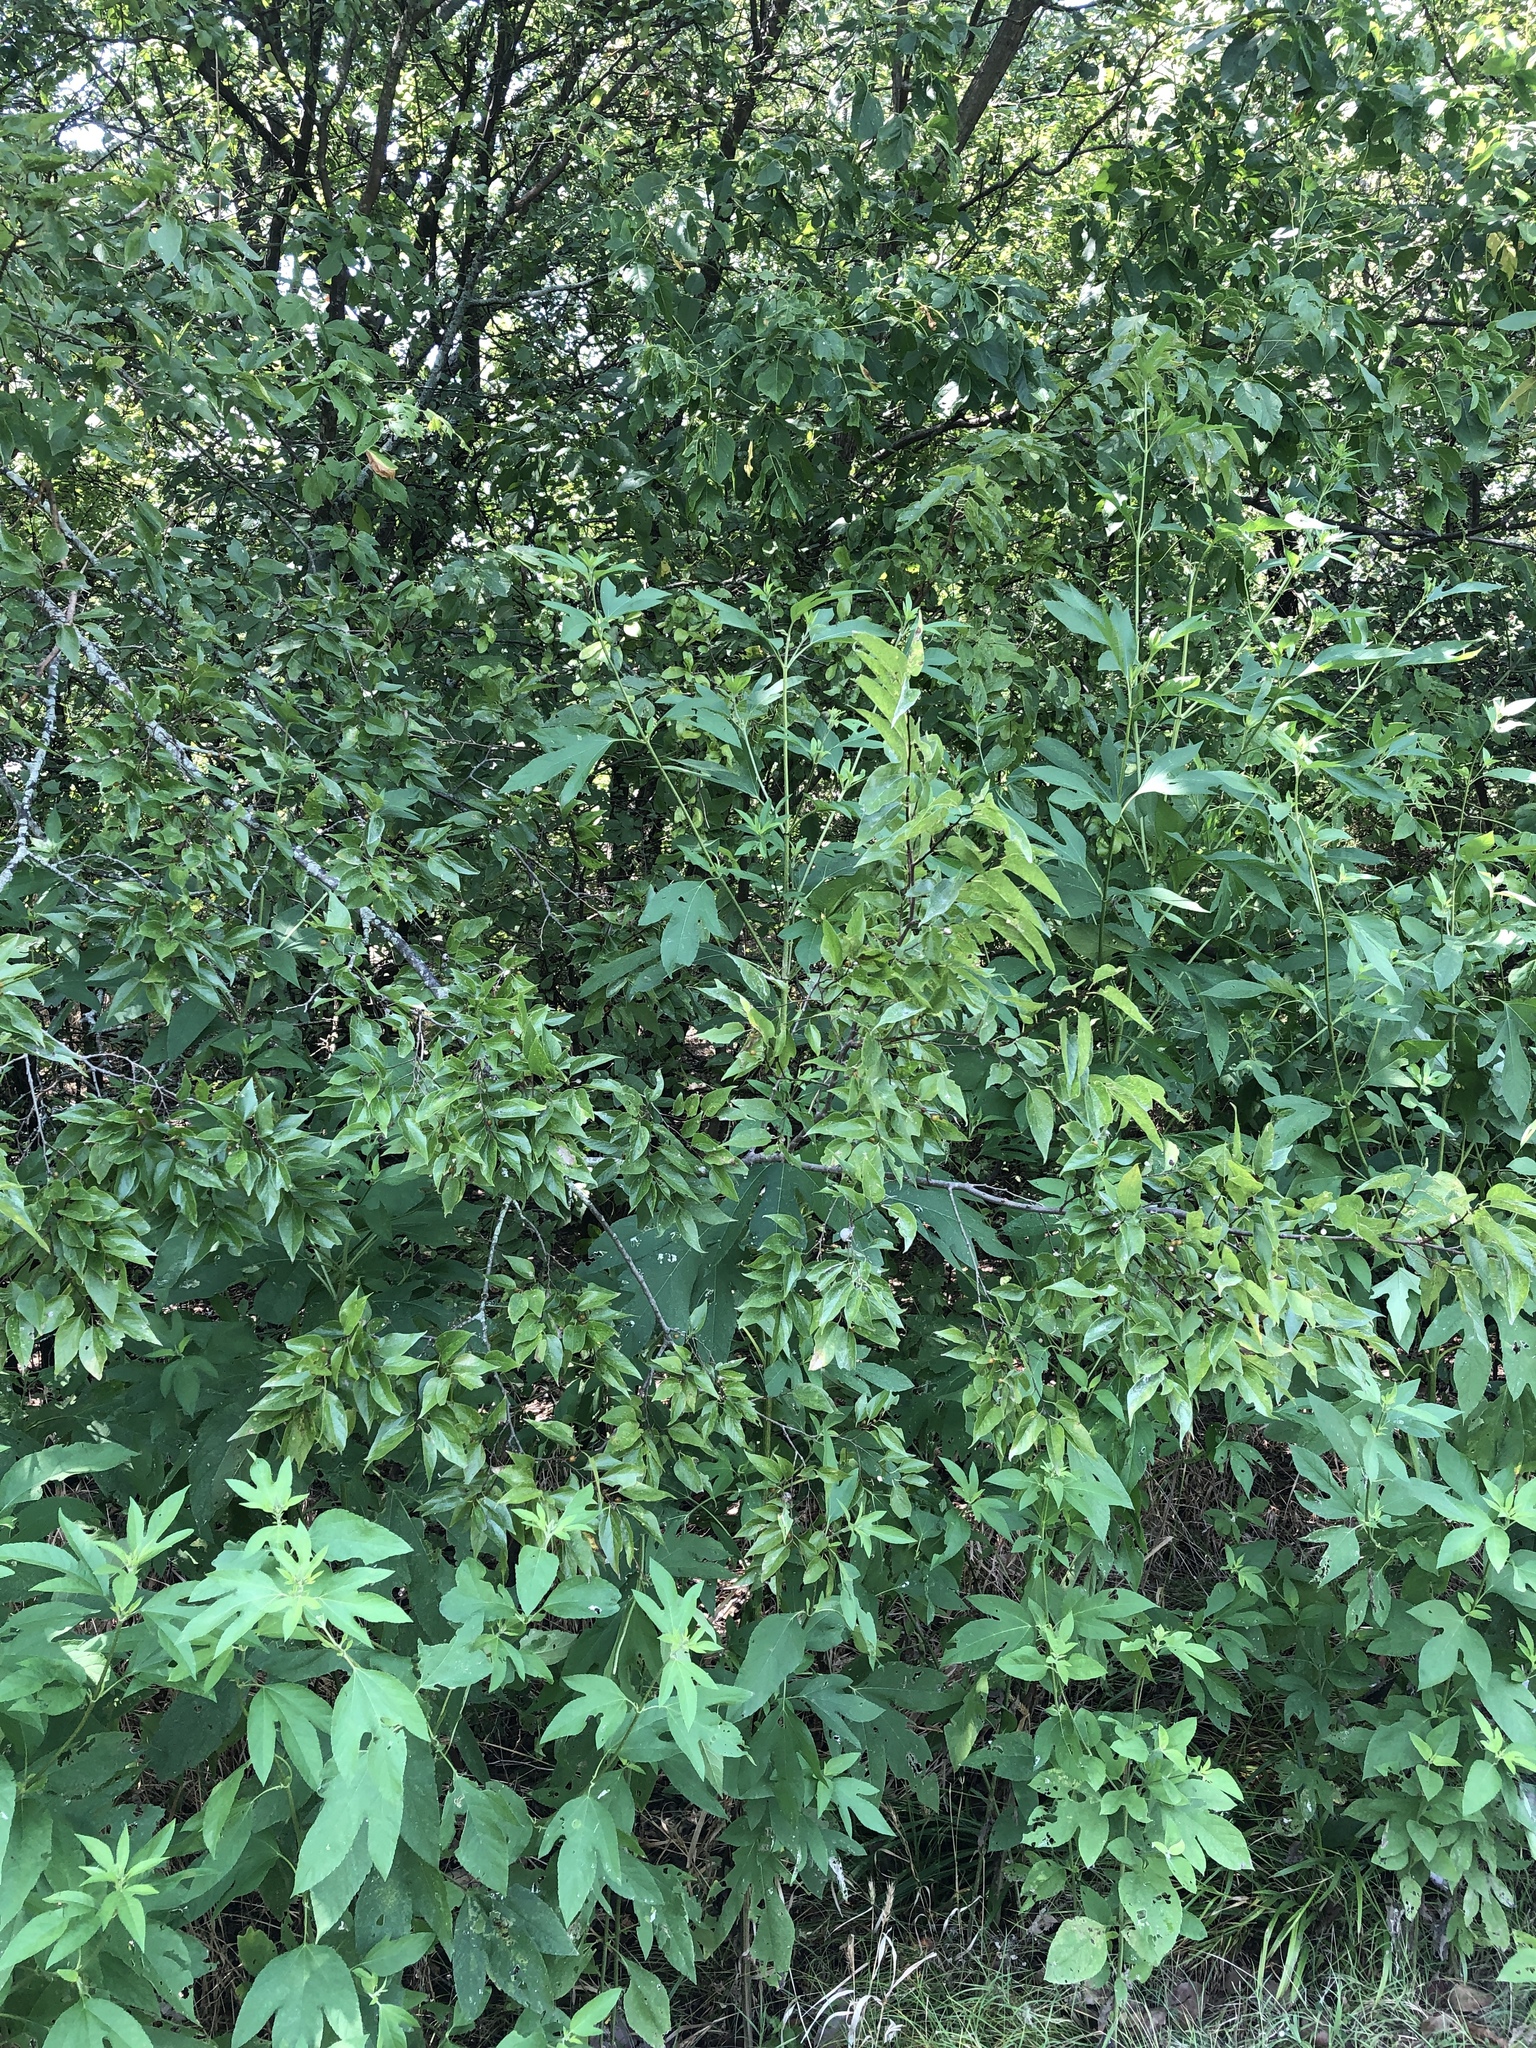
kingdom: Plantae
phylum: Tracheophyta
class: Magnoliopsida
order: Rosales
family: Cannabaceae
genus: Celtis
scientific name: Celtis laevigata
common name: Sugarberry
